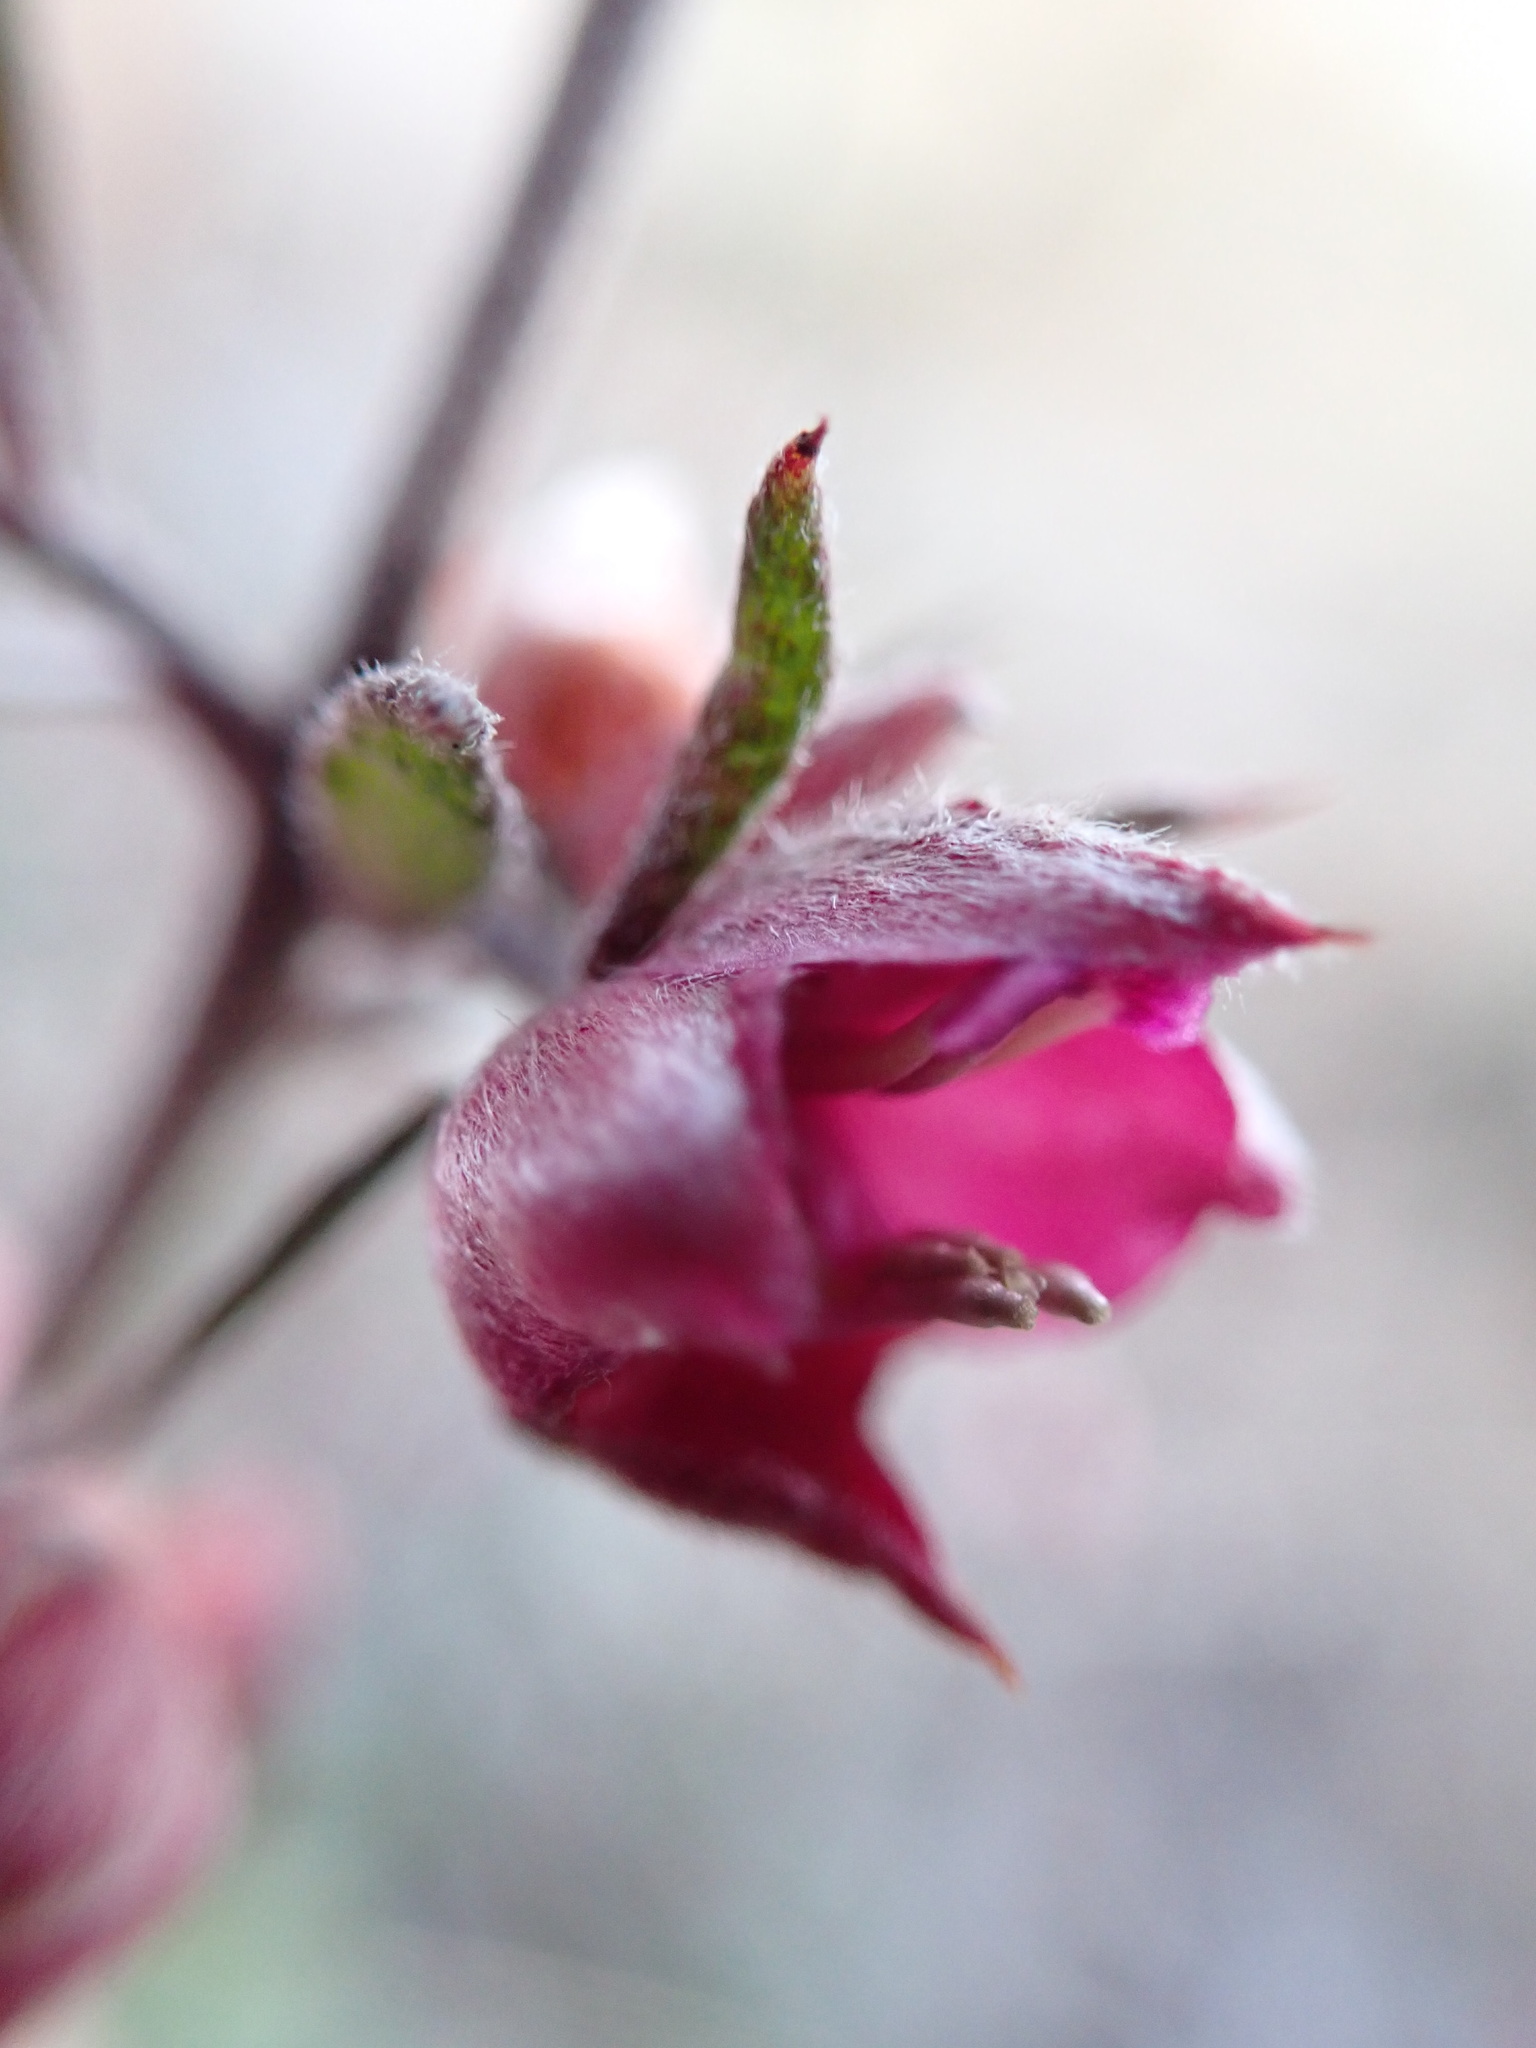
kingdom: Plantae
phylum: Tracheophyta
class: Magnoliopsida
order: Zygophyllales
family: Krameriaceae
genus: Krameria
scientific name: Krameria ixine
